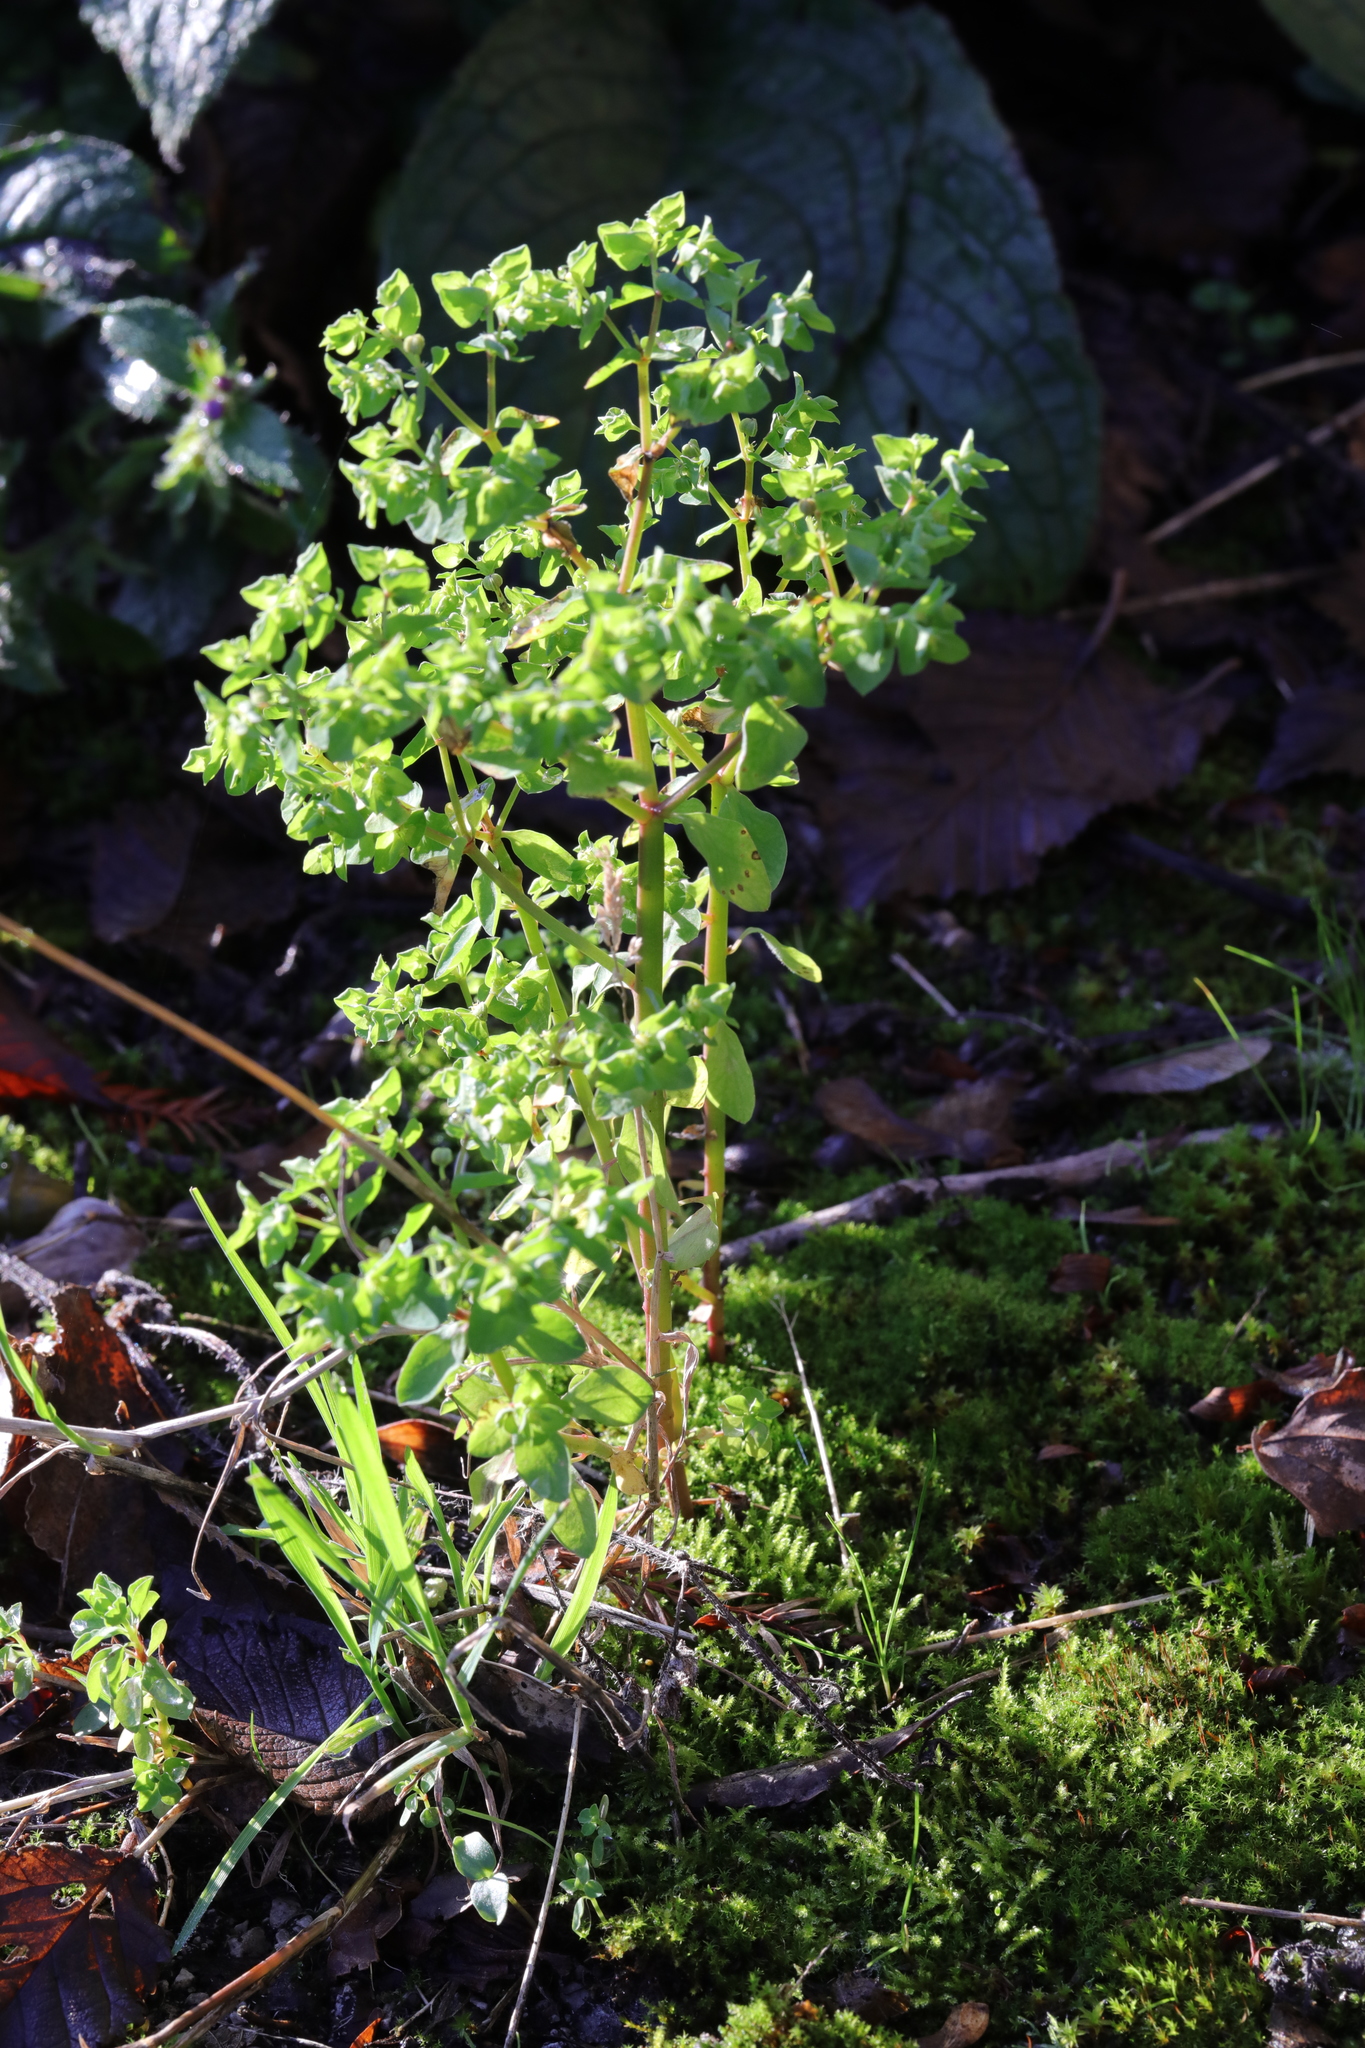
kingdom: Plantae
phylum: Tracheophyta
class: Magnoliopsida
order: Malpighiales
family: Euphorbiaceae
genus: Euphorbia
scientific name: Euphorbia peplus
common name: Petty spurge
